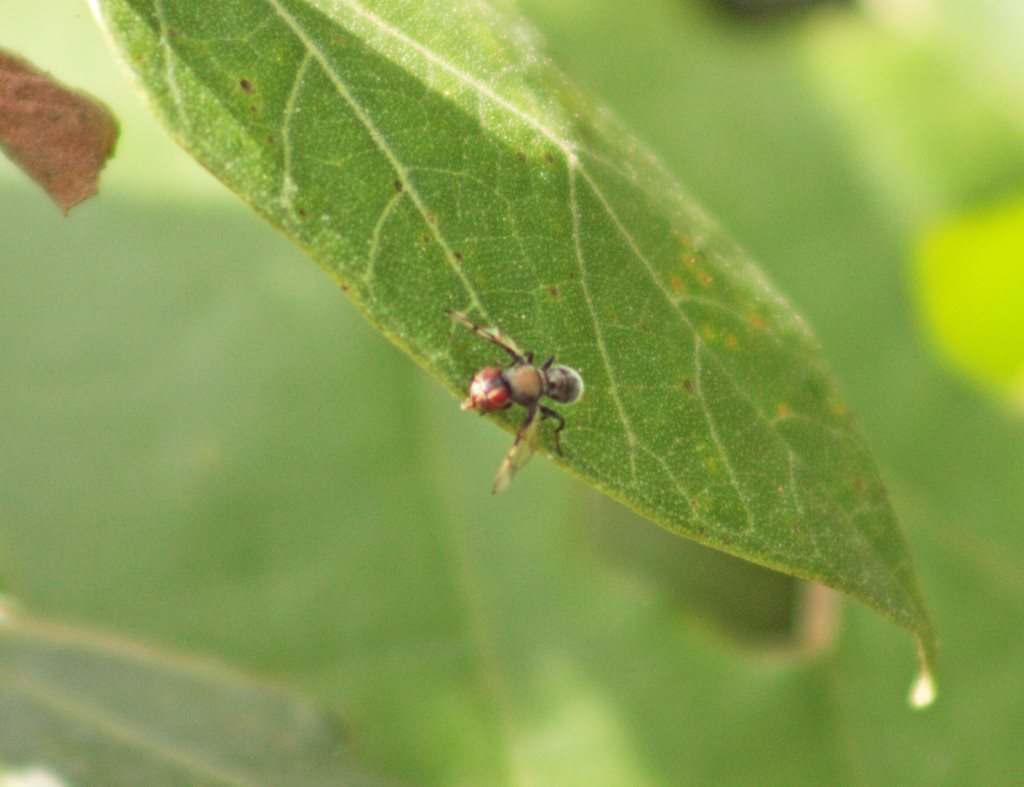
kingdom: Animalia
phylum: Arthropoda
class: Insecta
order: Diptera
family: Platystomatidae
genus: Pogonortalis
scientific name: Pogonortalis doclea
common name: Boatman fly
